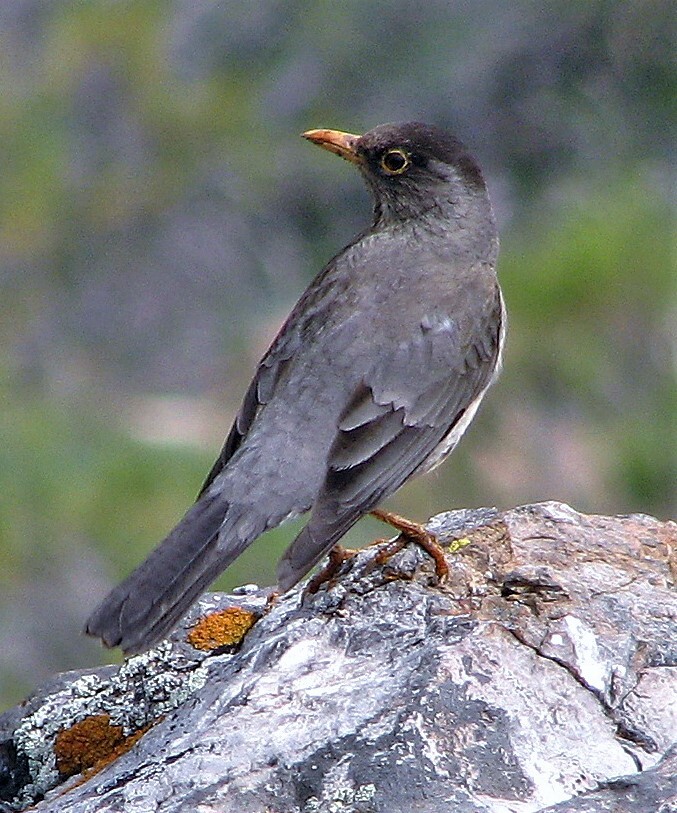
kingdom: Animalia
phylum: Chordata
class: Aves
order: Passeriformes
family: Turdidae
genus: Turdus
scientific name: Turdus falcklandii
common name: Austral thrush
